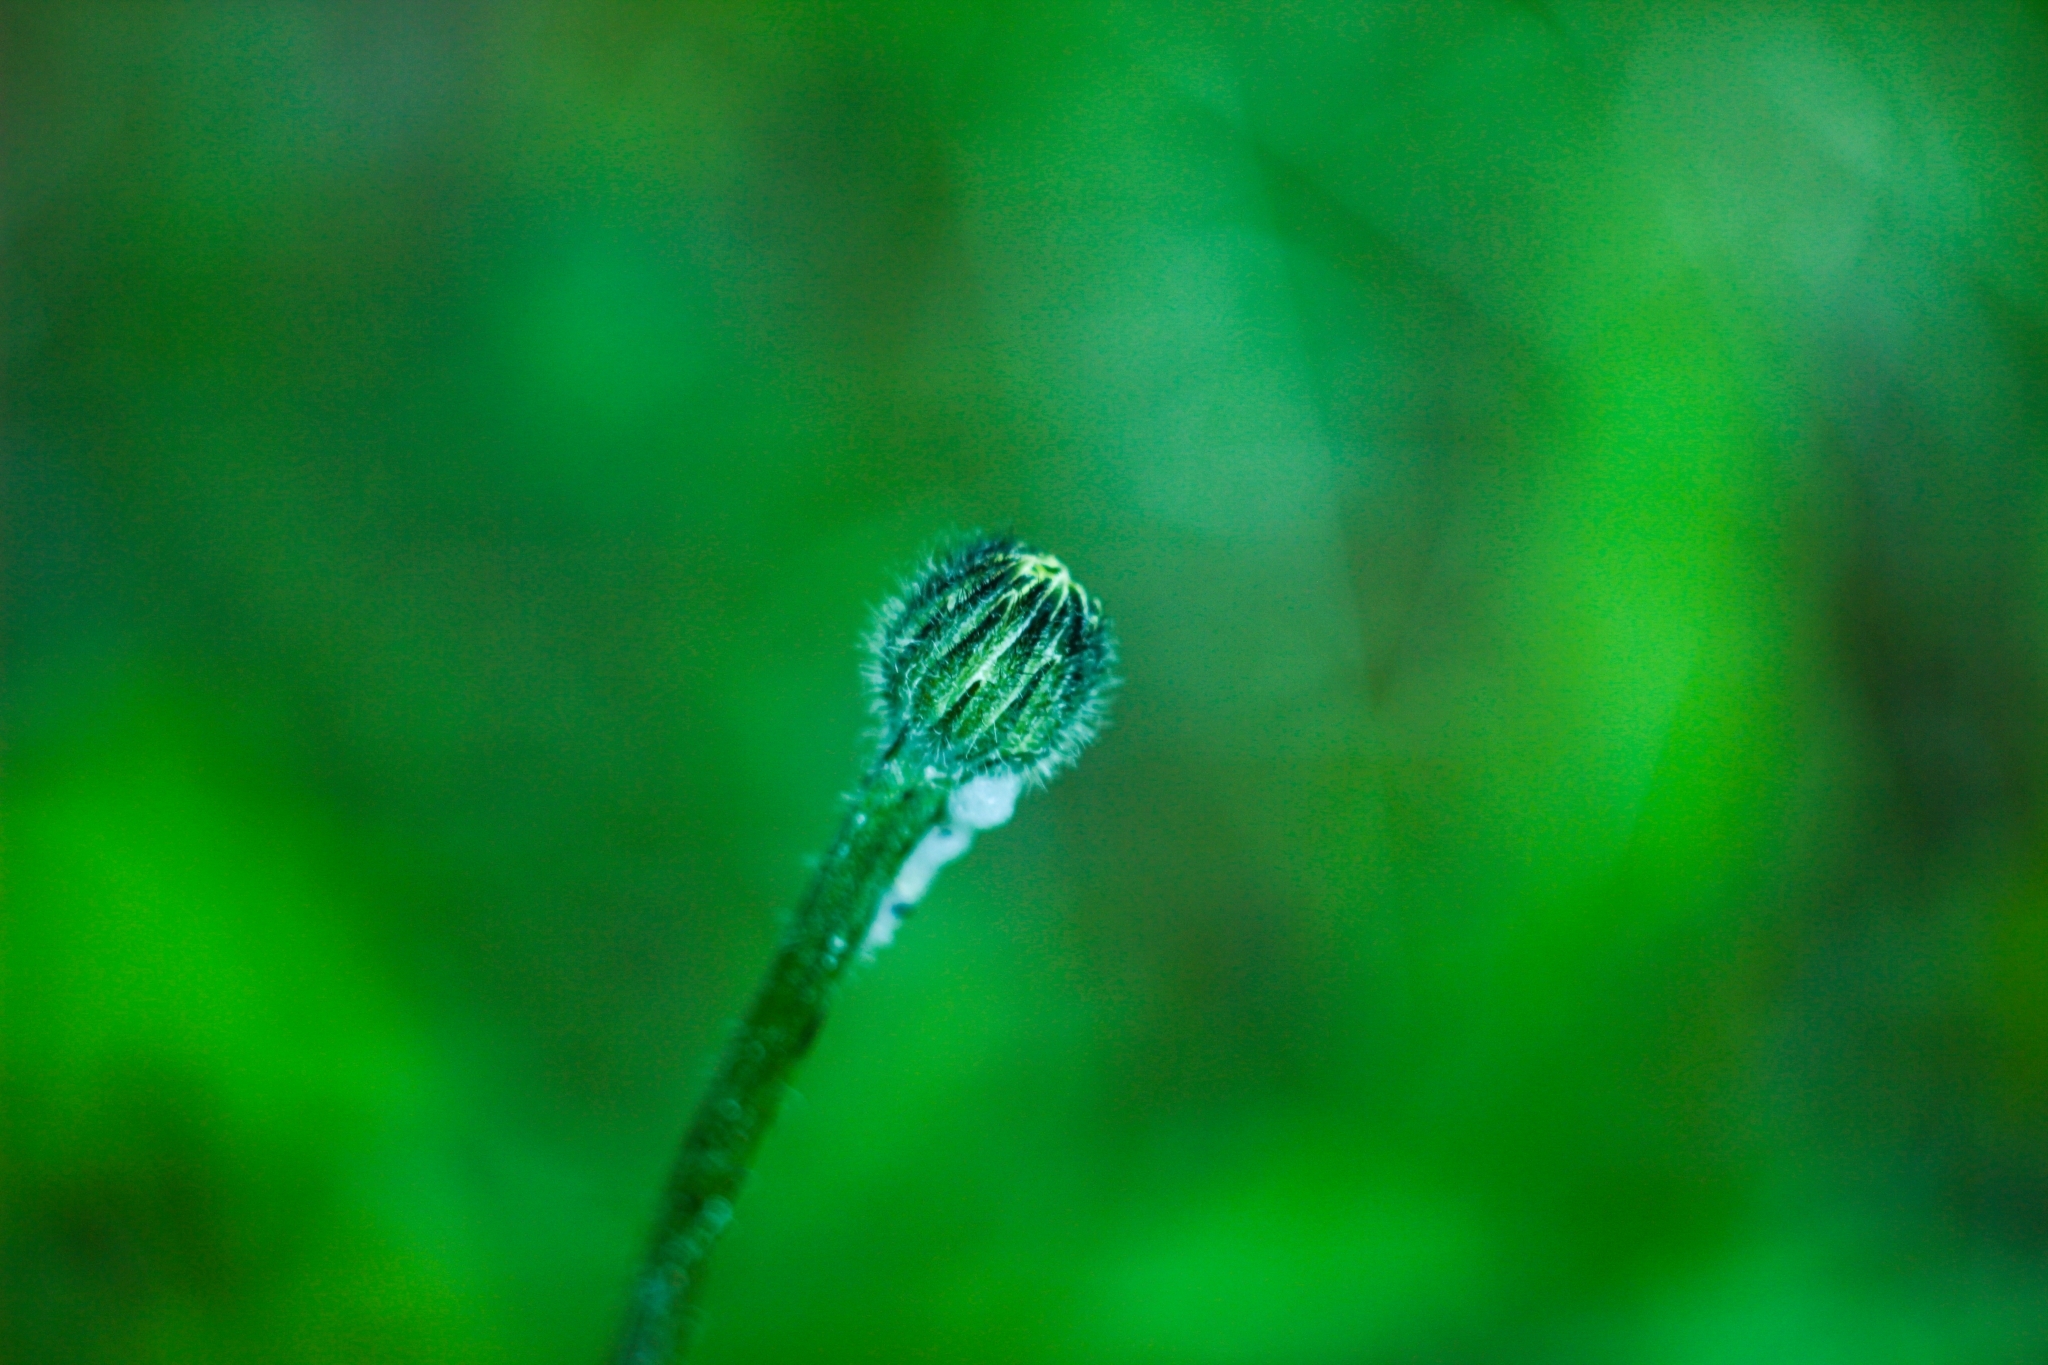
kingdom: Plantae
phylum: Tracheophyta
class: Magnoliopsida
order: Asterales
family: Asteraceae
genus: Trommsdorffia
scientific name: Trommsdorffia maculata
